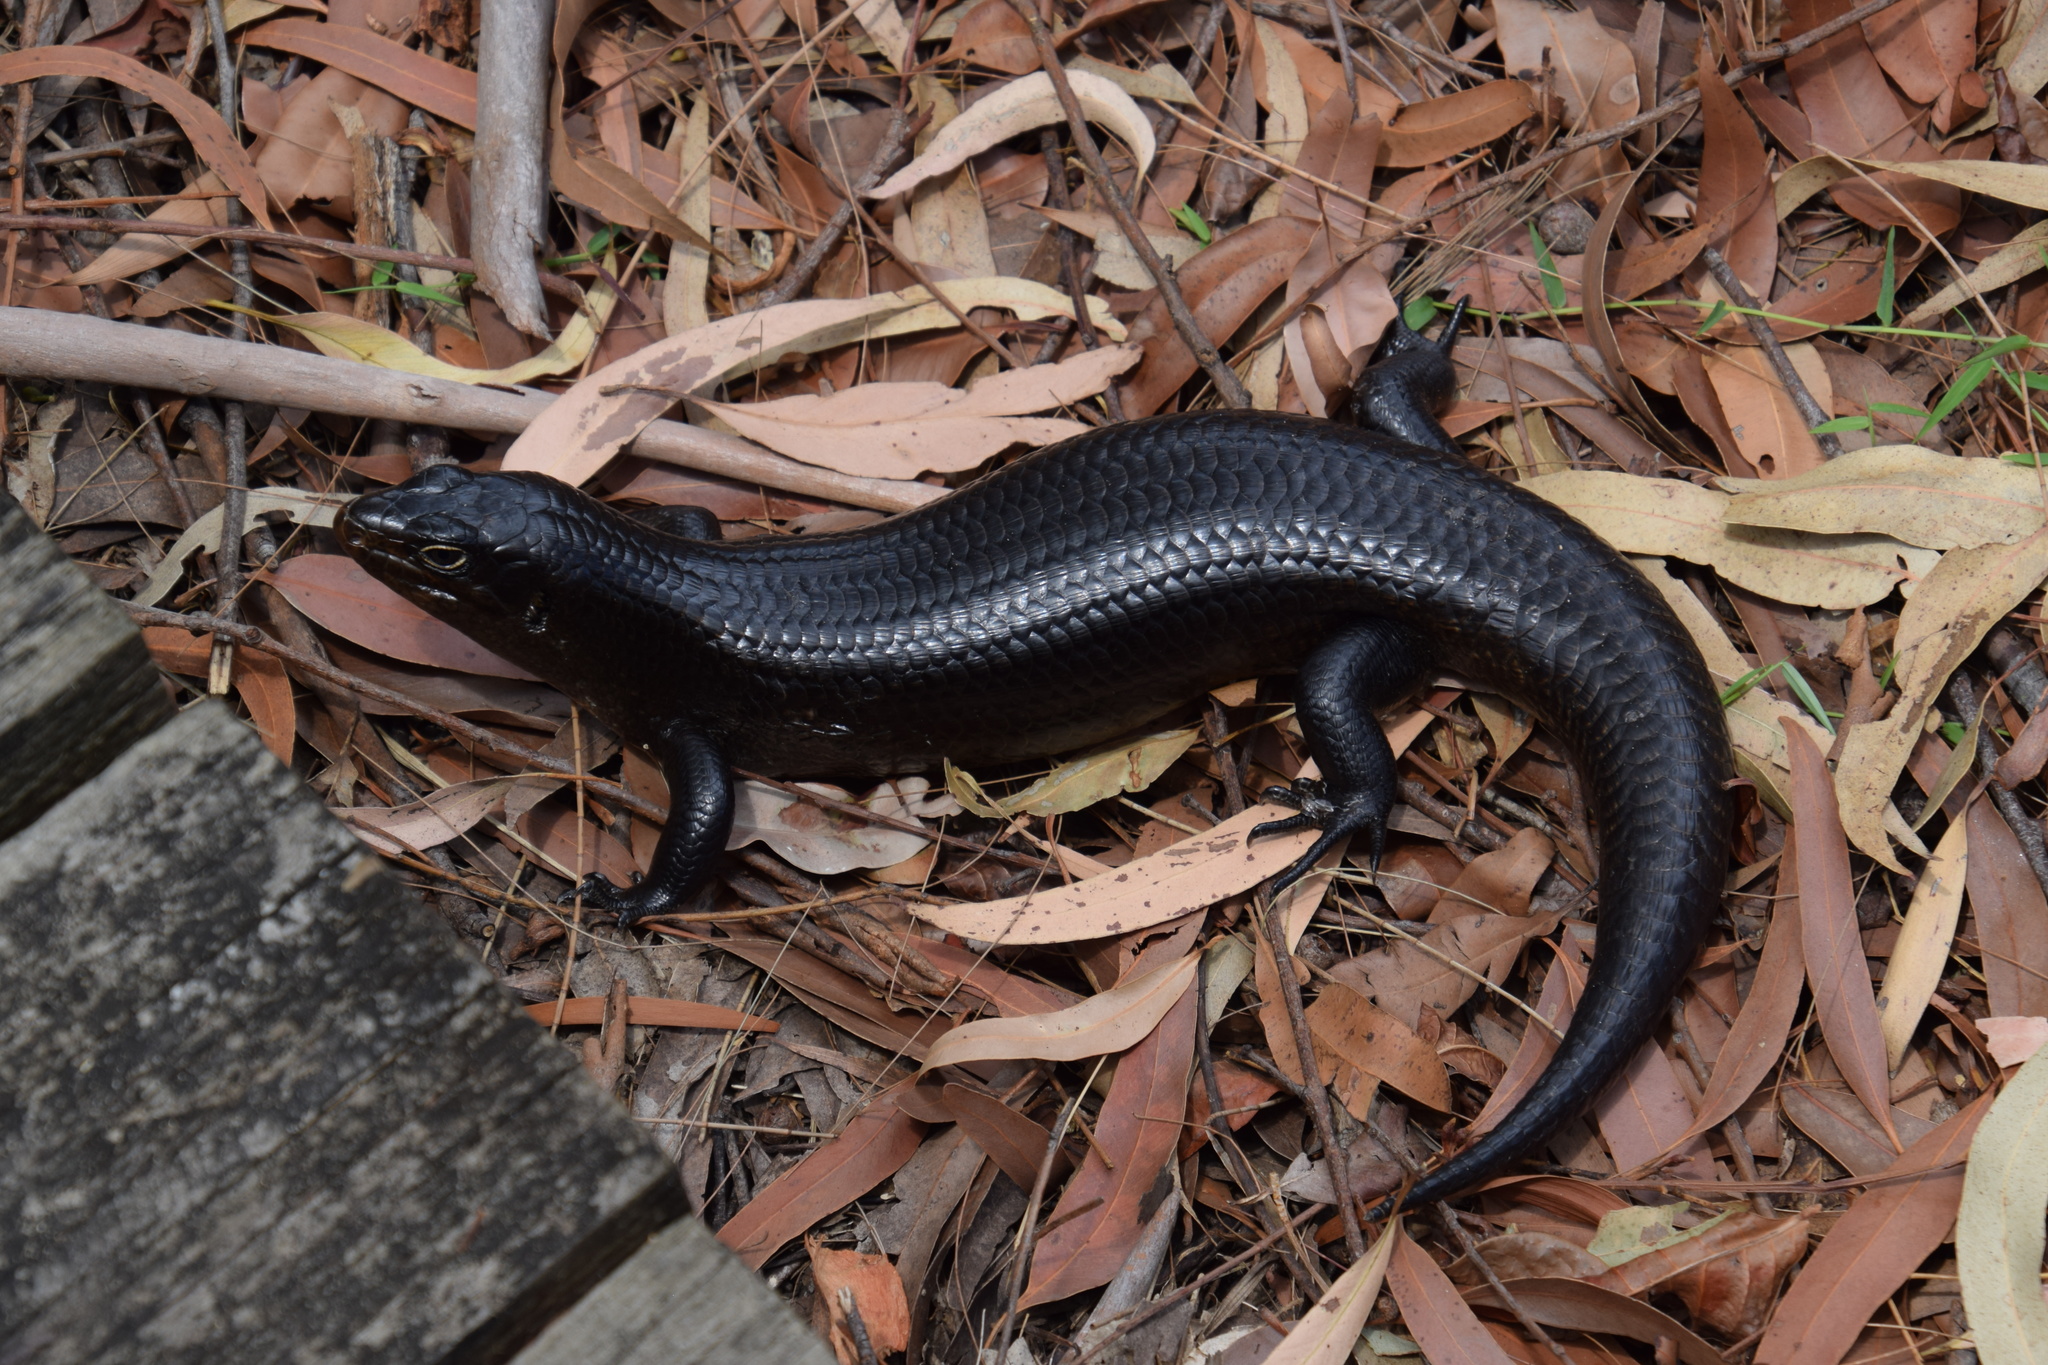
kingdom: Animalia
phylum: Chordata
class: Squamata
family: Scincidae
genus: Bellatorias
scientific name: Bellatorias major
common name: Land mullet
